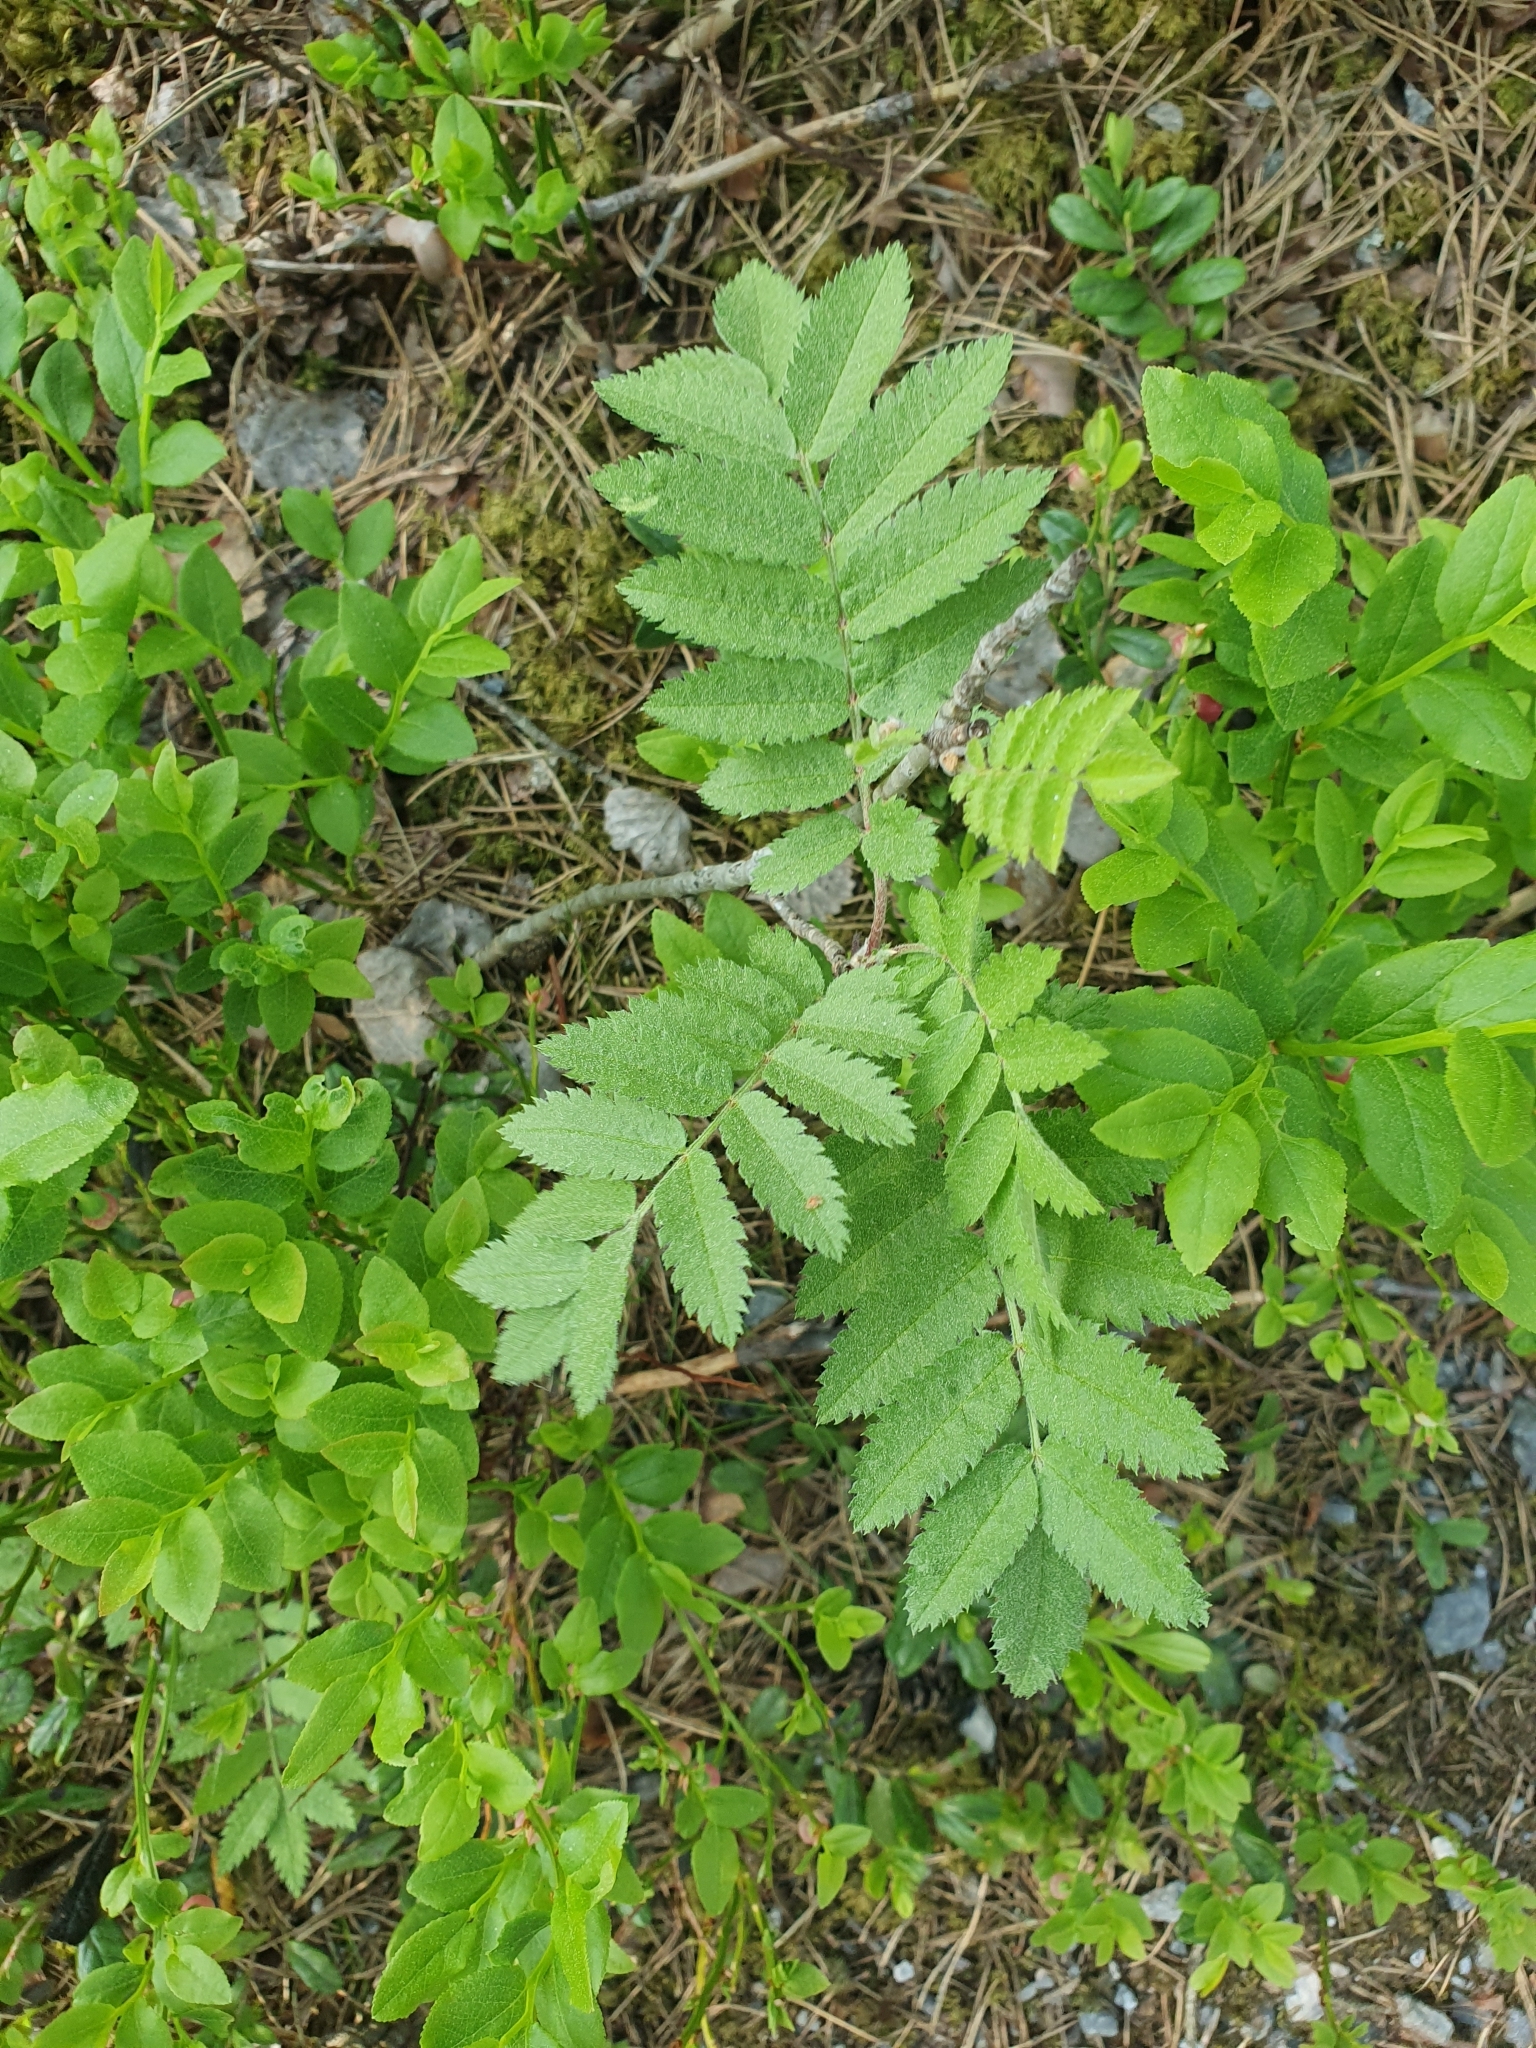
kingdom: Plantae
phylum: Tracheophyta
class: Magnoliopsida
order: Rosales
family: Rosaceae
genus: Sorbus
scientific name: Sorbus aucuparia
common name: Rowan
